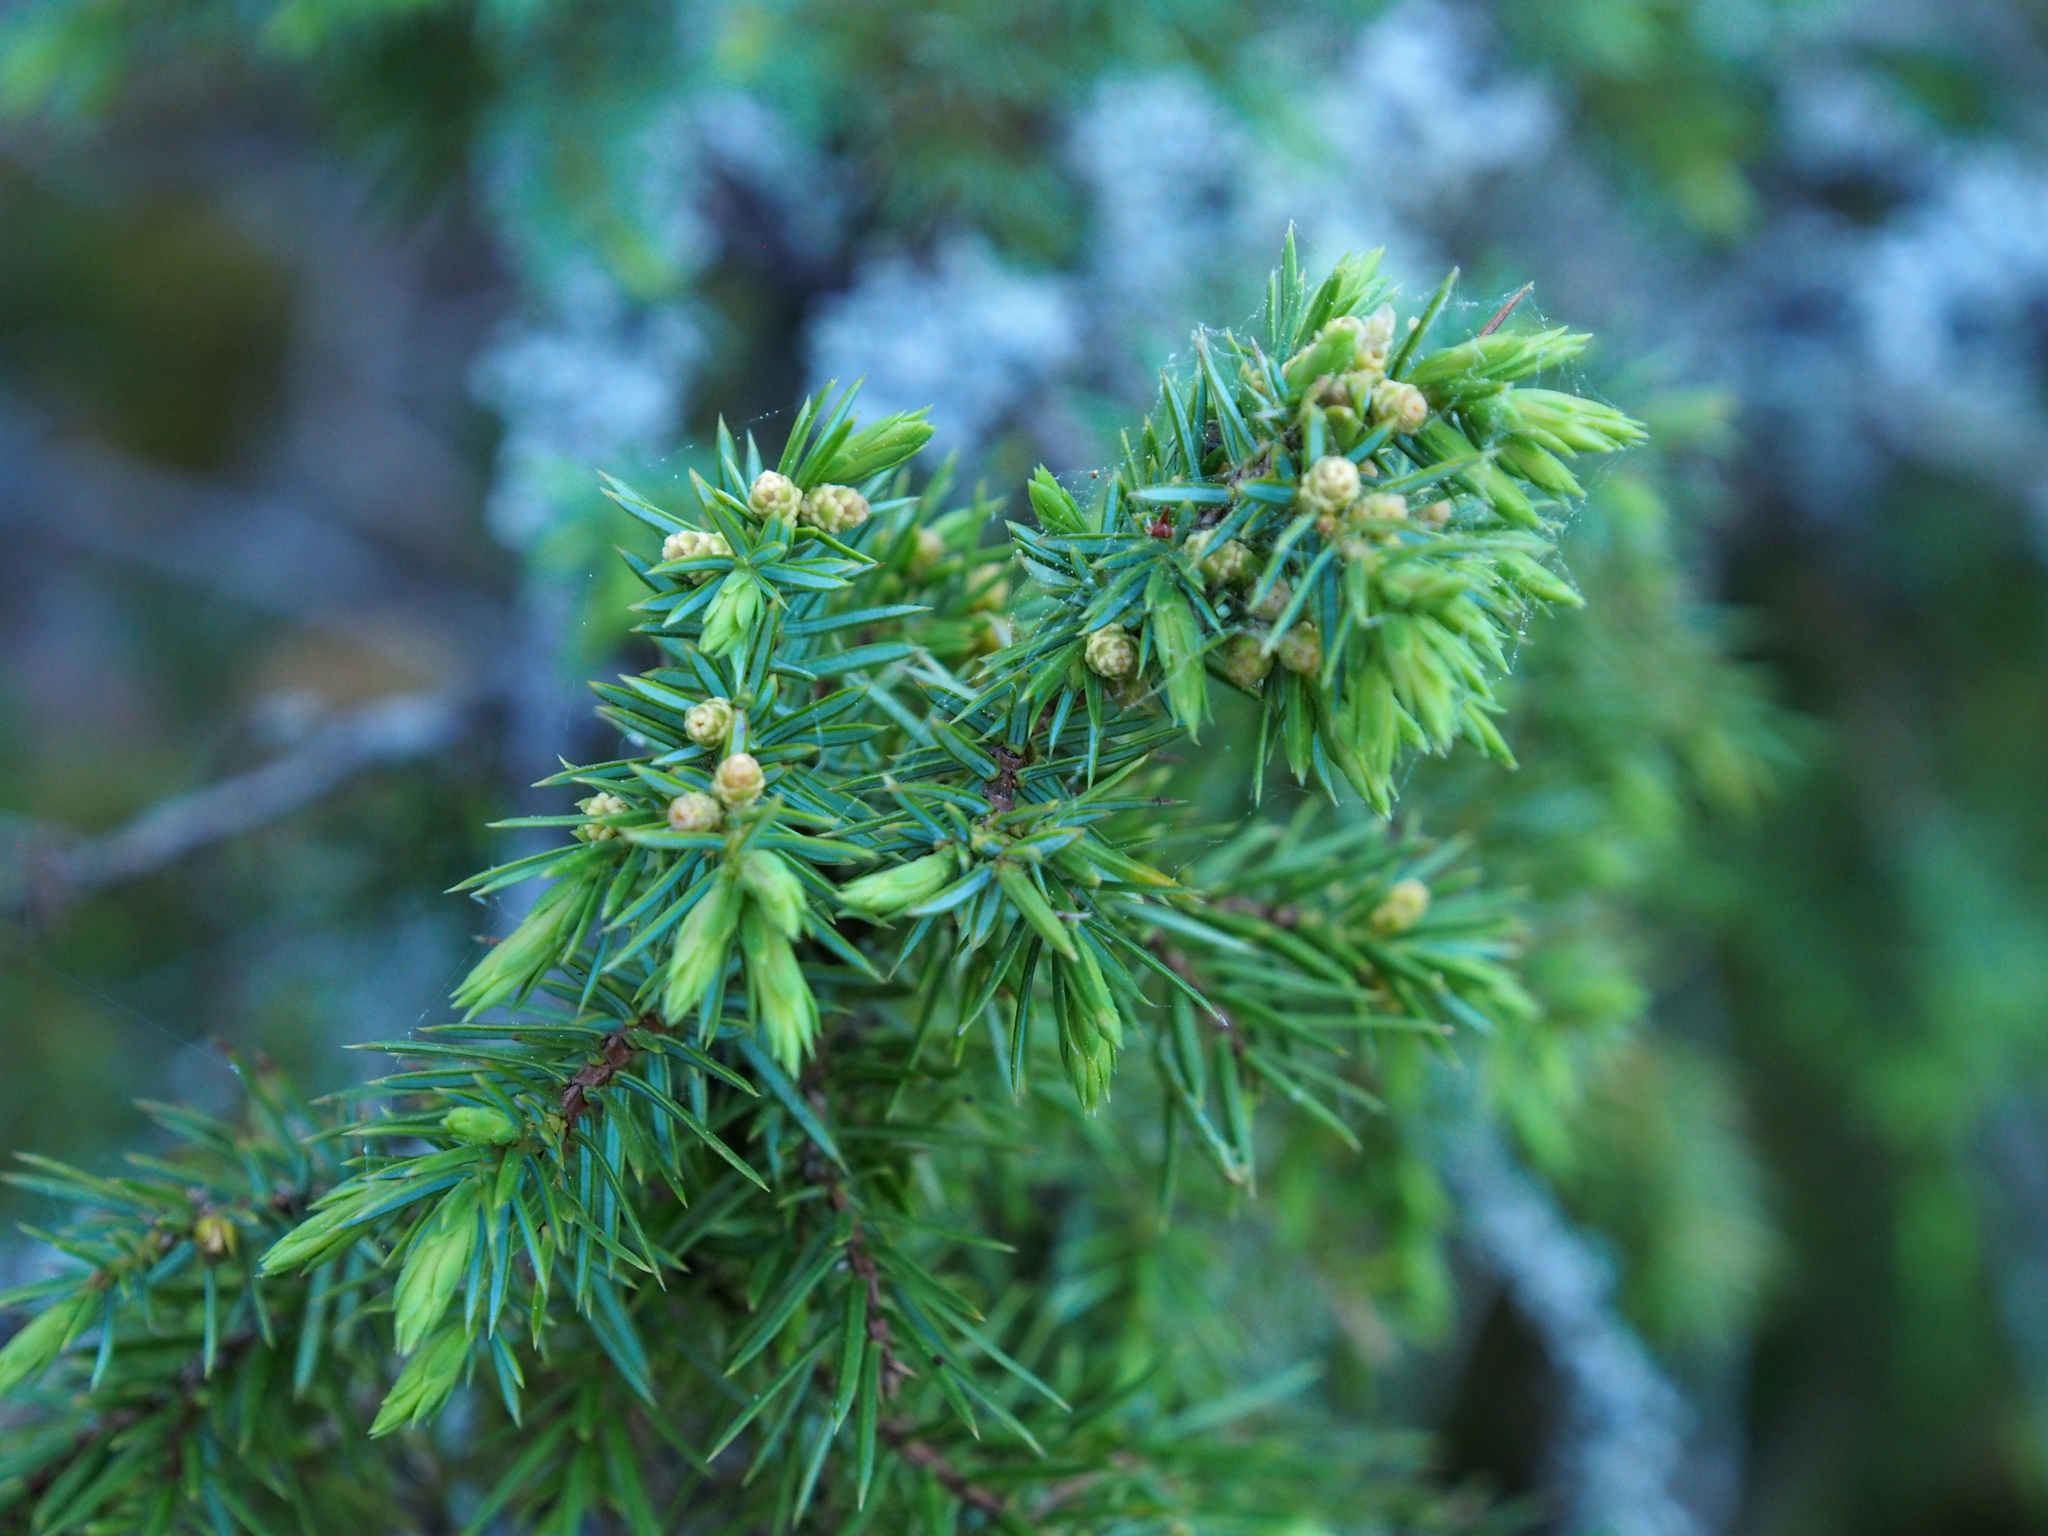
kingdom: Plantae
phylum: Tracheophyta
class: Pinopsida
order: Pinales
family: Cupressaceae
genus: Juniperus
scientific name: Juniperus communis
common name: Common juniper
